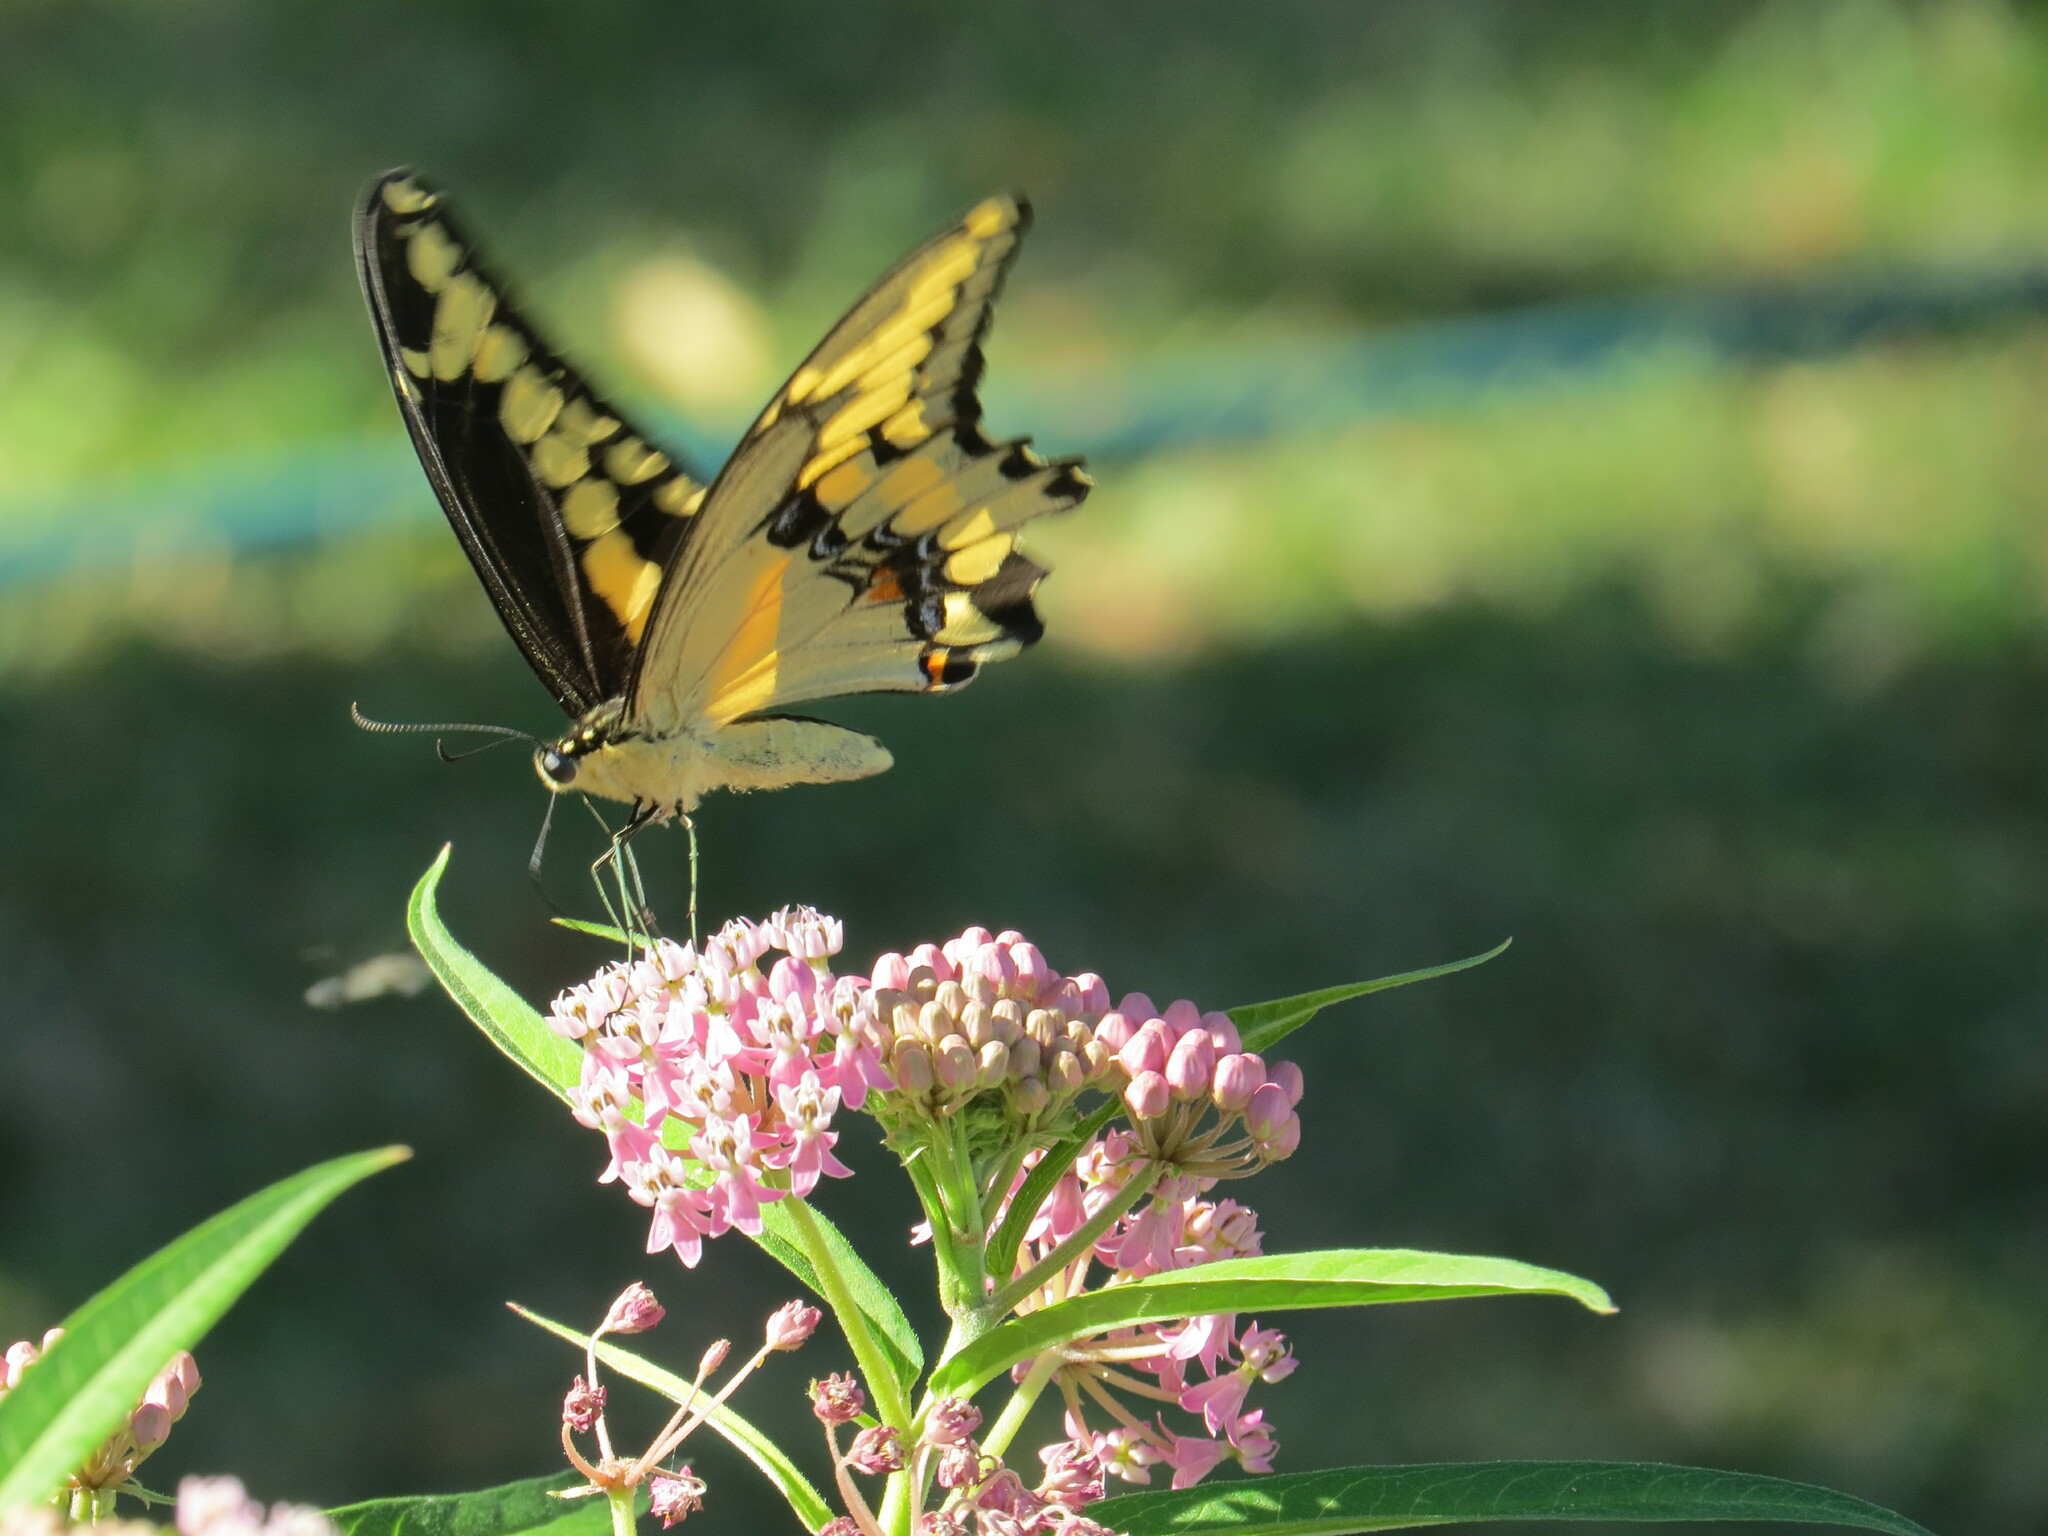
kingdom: Animalia
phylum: Arthropoda
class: Insecta
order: Lepidoptera
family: Papilionidae
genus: Papilio
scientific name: Papilio cresphontes
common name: Giant swallowtail
